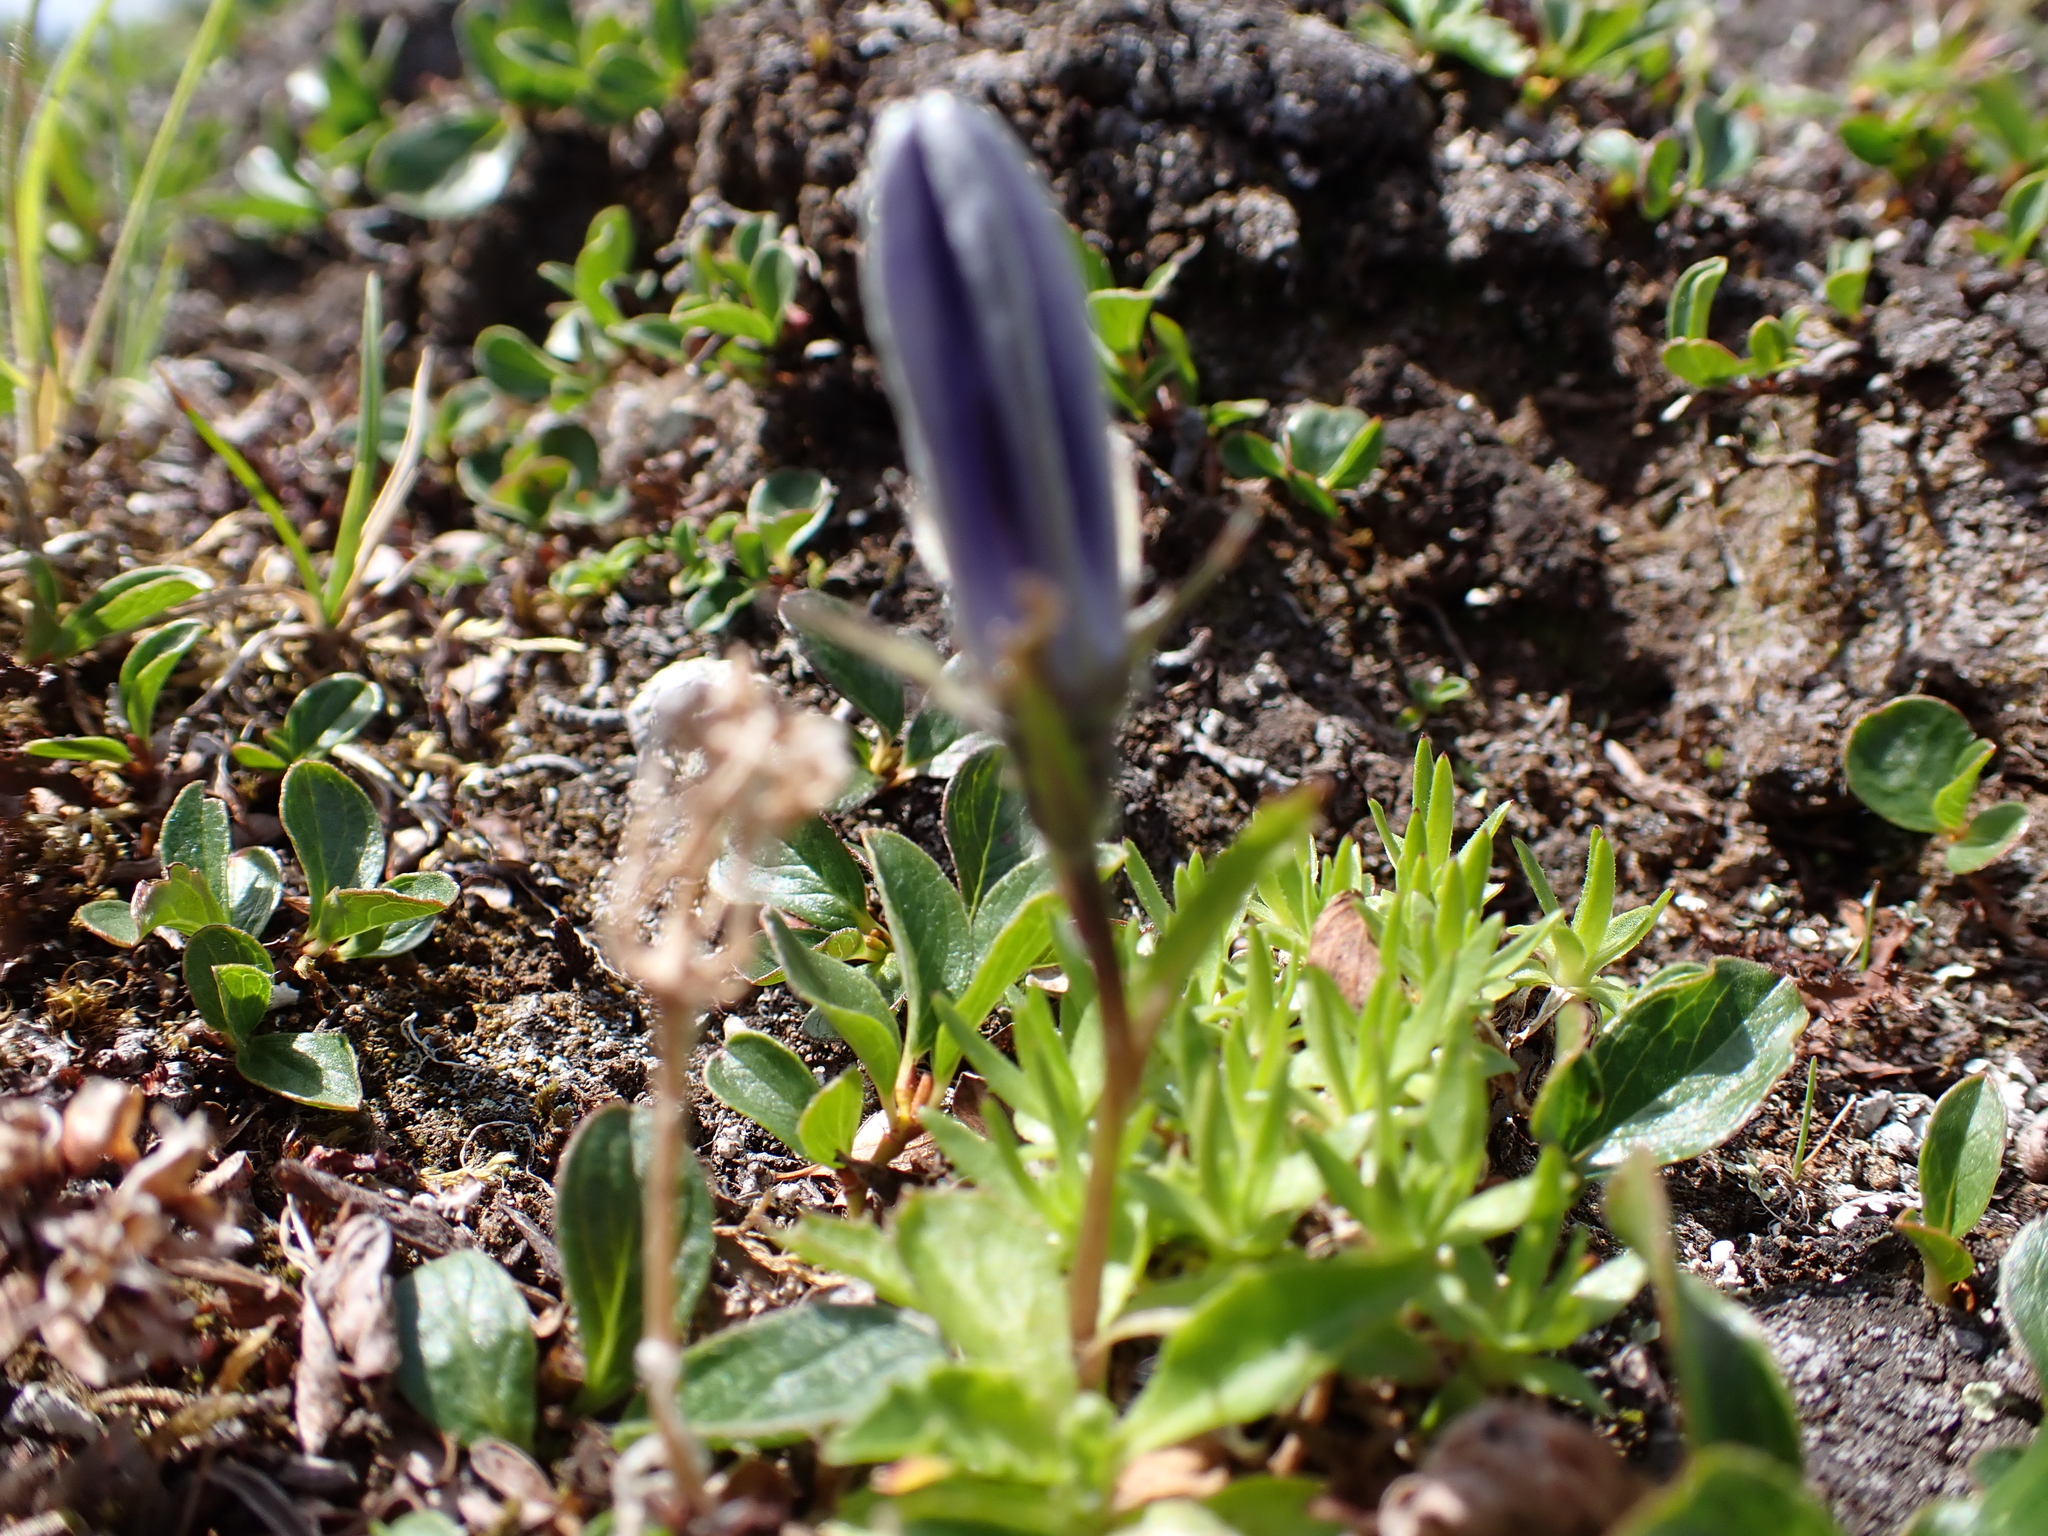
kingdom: Plantae
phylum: Tracheophyta
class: Magnoliopsida
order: Asterales
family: Campanulaceae
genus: Campanula
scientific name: Campanula lasiocarpa
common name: Mountain harebell
